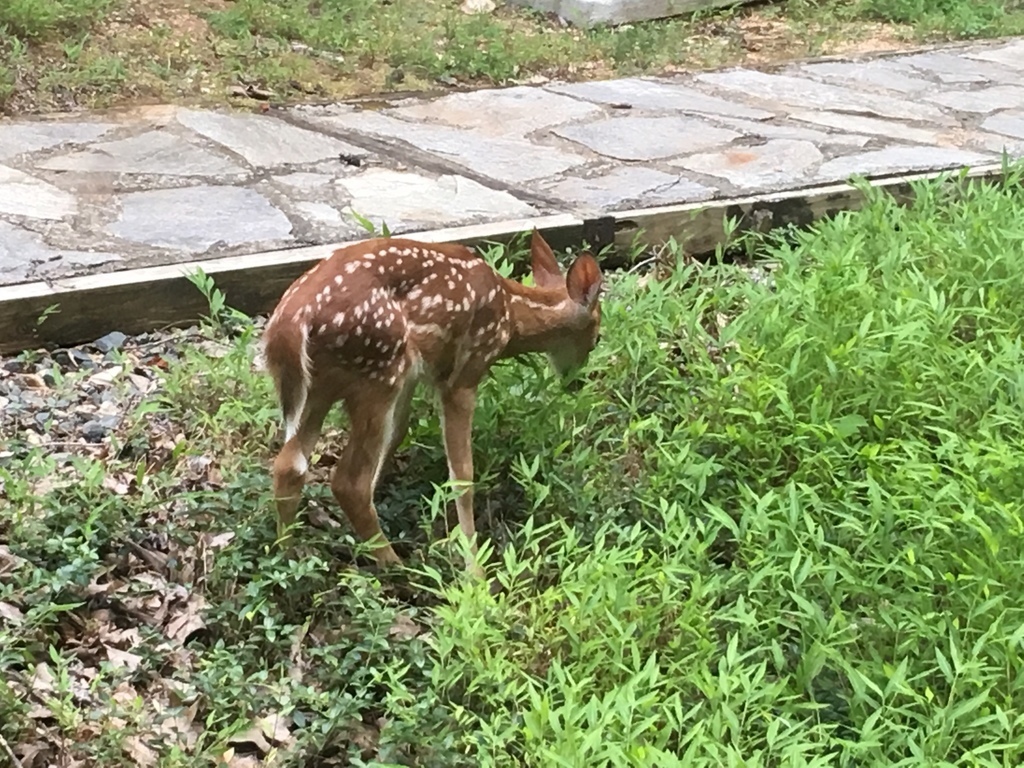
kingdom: Animalia
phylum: Chordata
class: Mammalia
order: Artiodactyla
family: Cervidae
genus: Odocoileus
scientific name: Odocoileus virginianus
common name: White-tailed deer
